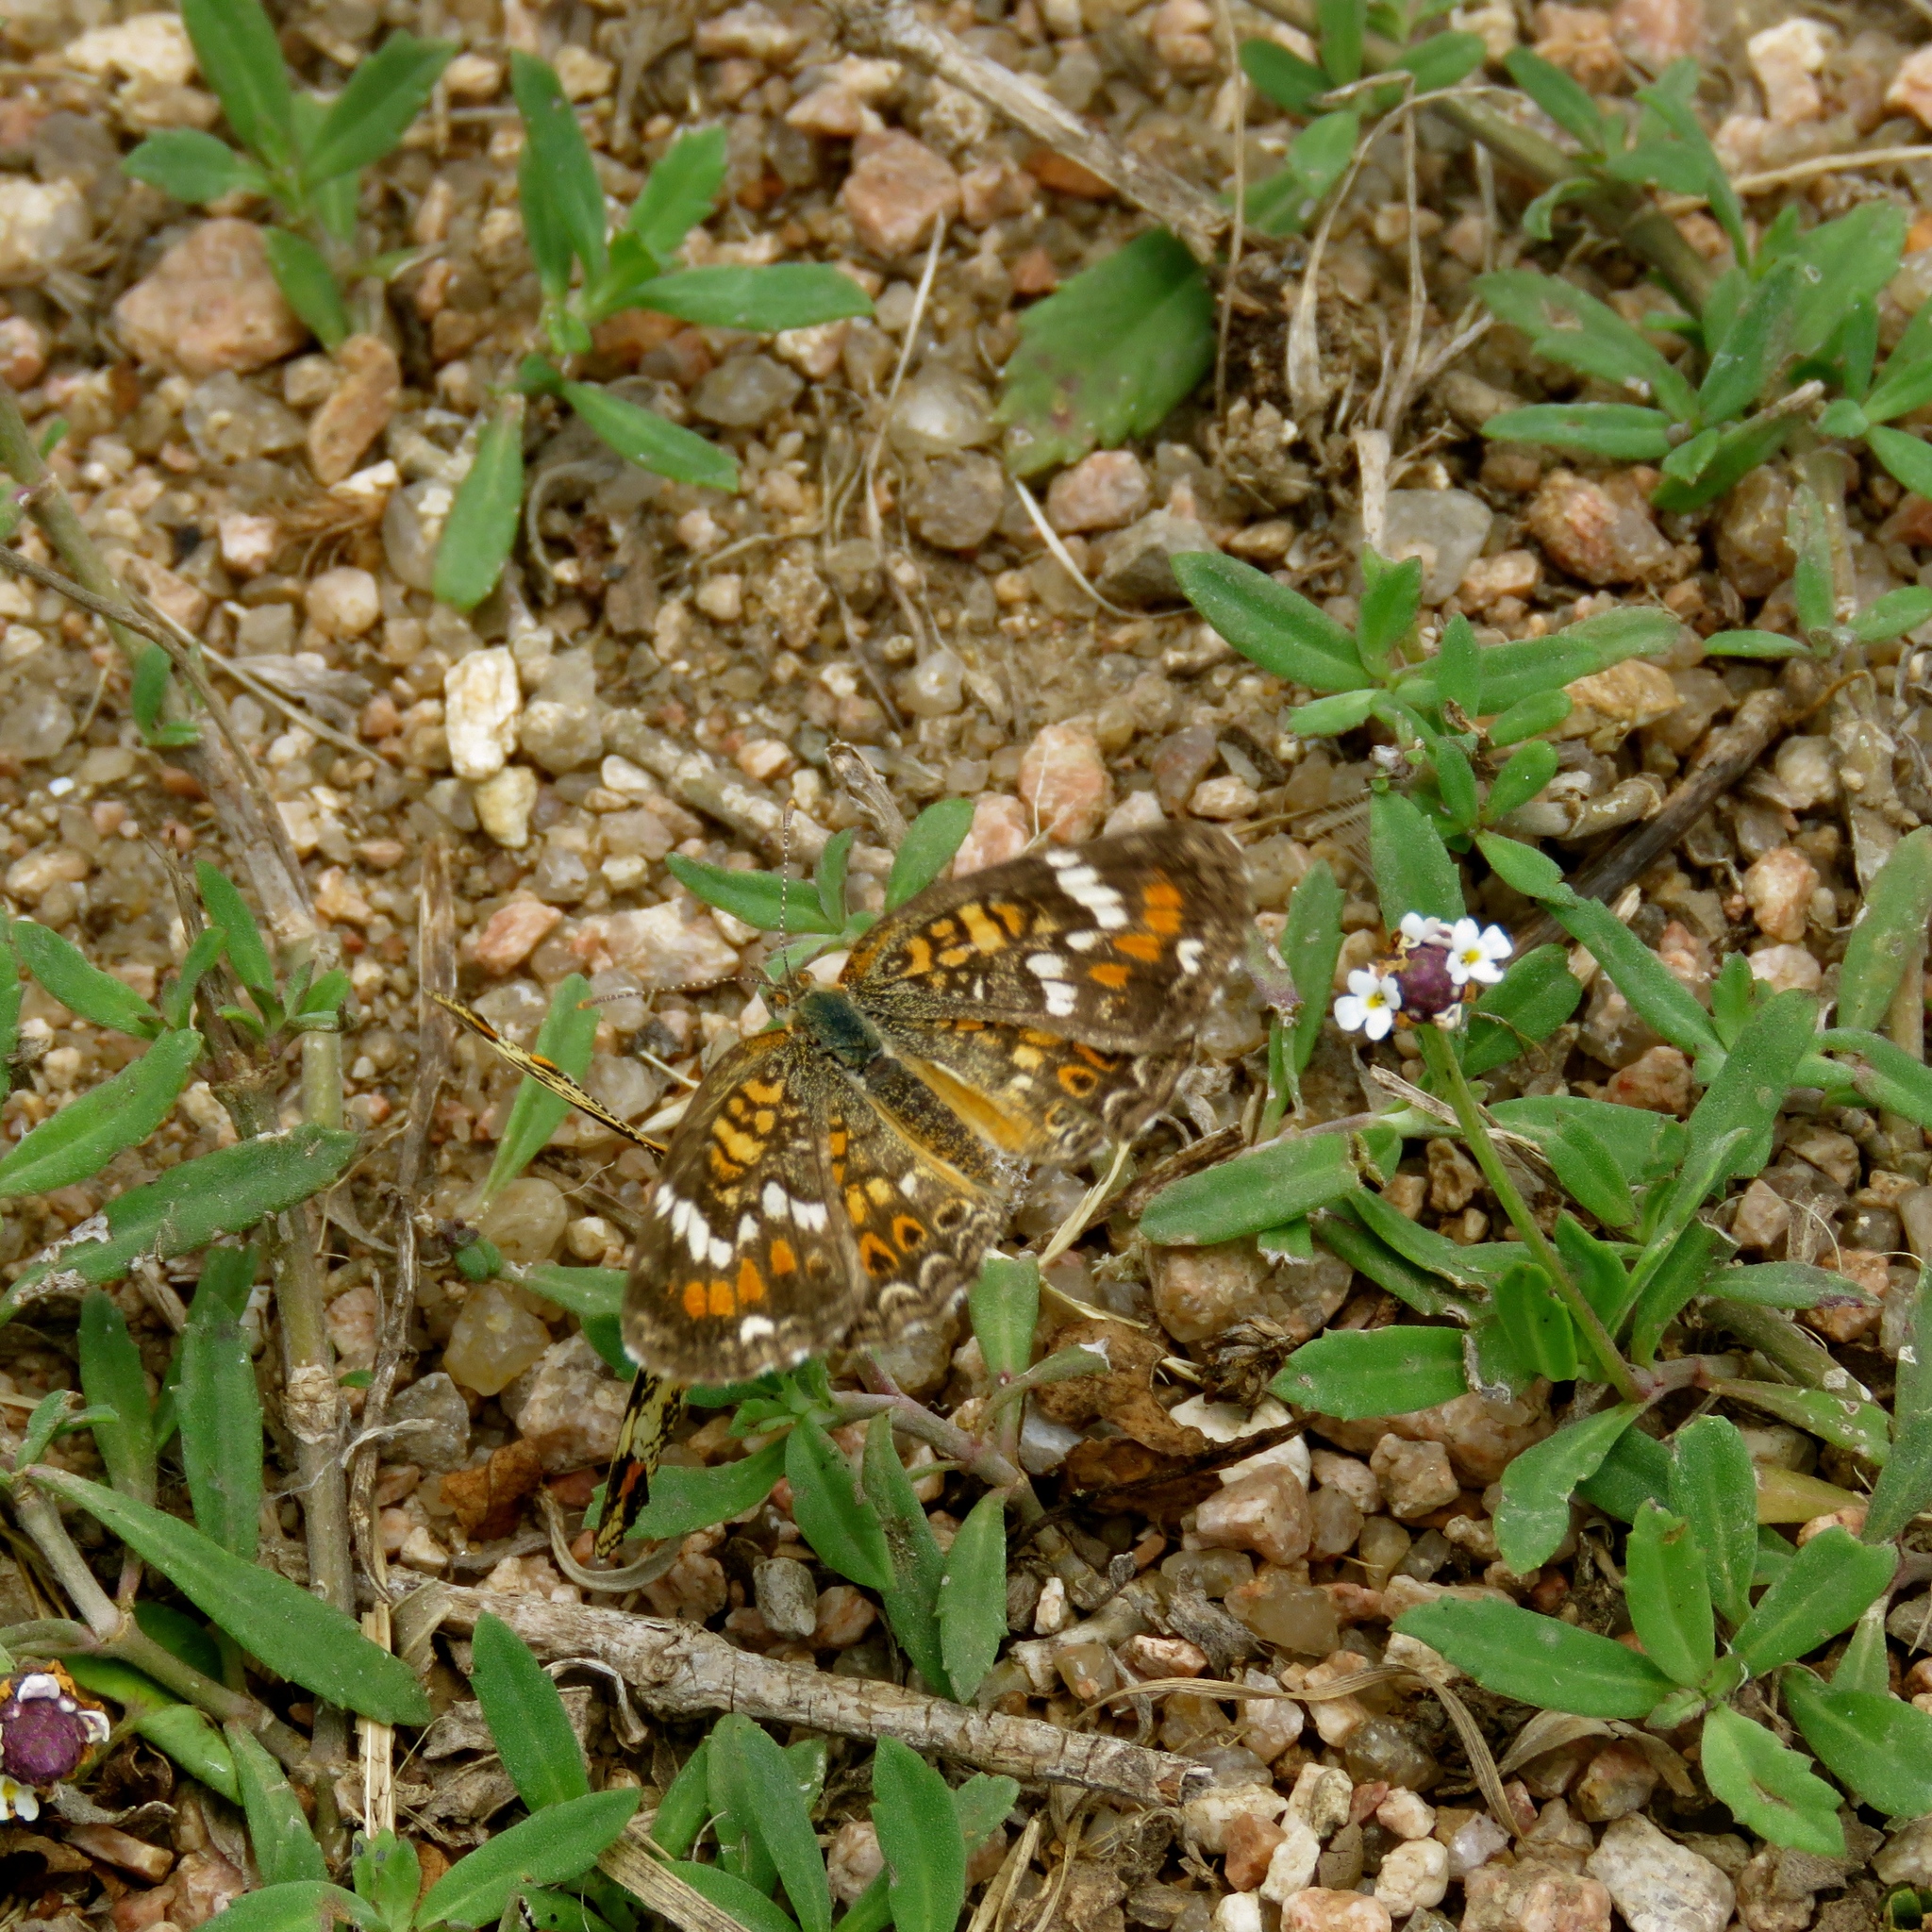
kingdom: Animalia
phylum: Arthropoda
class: Insecta
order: Lepidoptera
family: Nymphalidae
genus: Phyciodes
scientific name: Phyciodes phaon
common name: Phaon crescent
